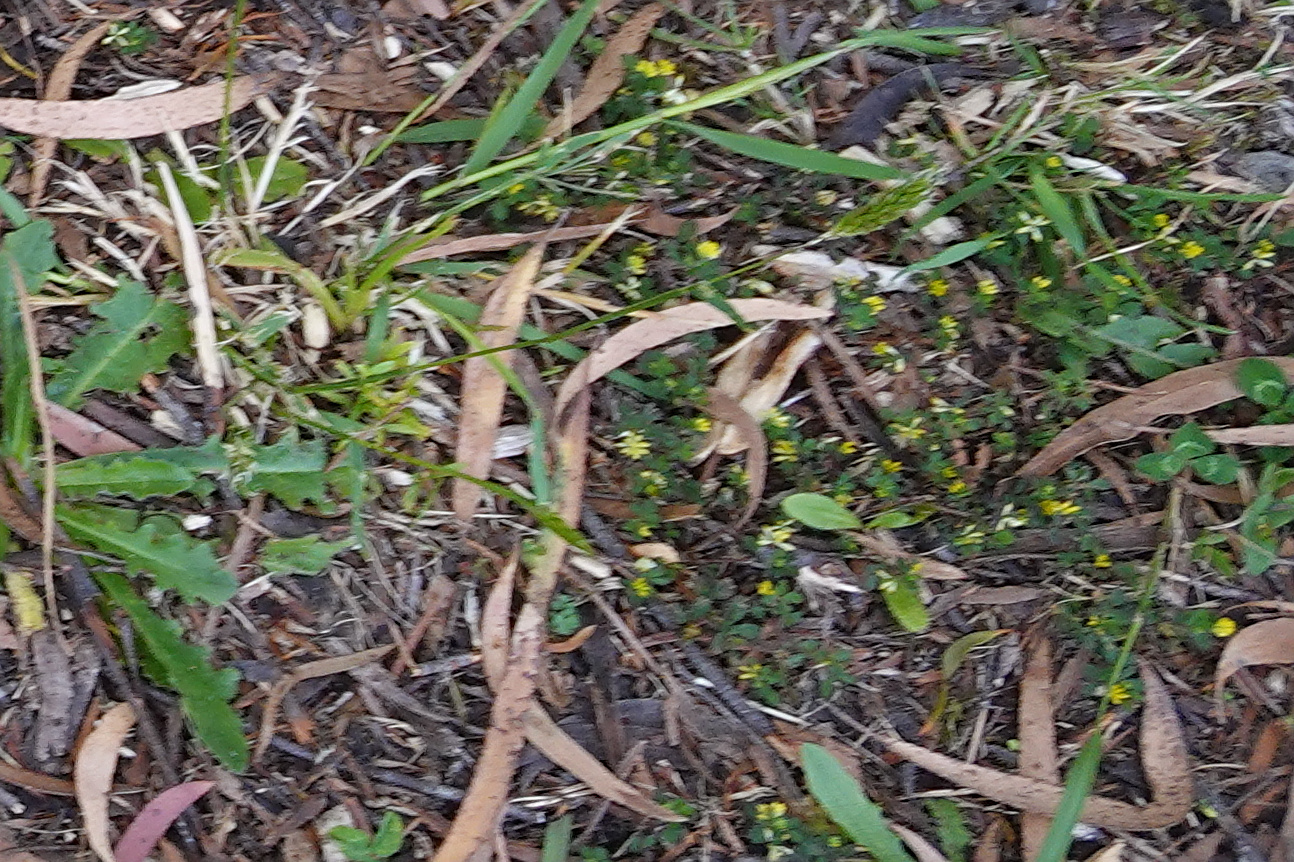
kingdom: Plantae
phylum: Tracheophyta
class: Magnoliopsida
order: Fabales
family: Fabaceae
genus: Trifolium
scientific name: Trifolium dubium
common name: Suckling clover
